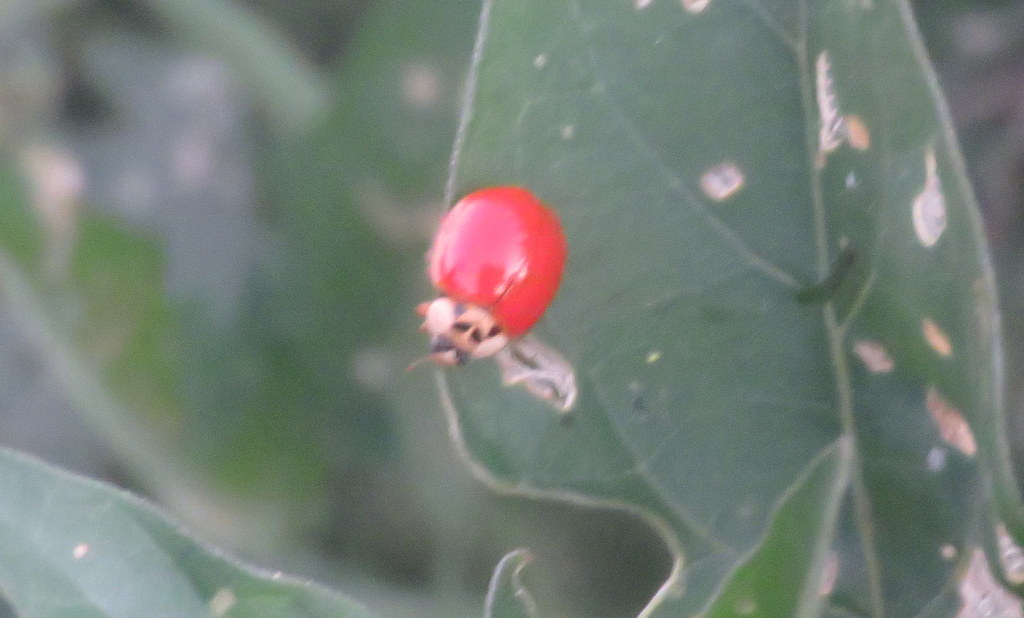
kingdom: Animalia
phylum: Arthropoda
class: Insecta
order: Coleoptera
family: Coccinellidae
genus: Harmonia
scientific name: Harmonia axyridis
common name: Harlequin ladybird
